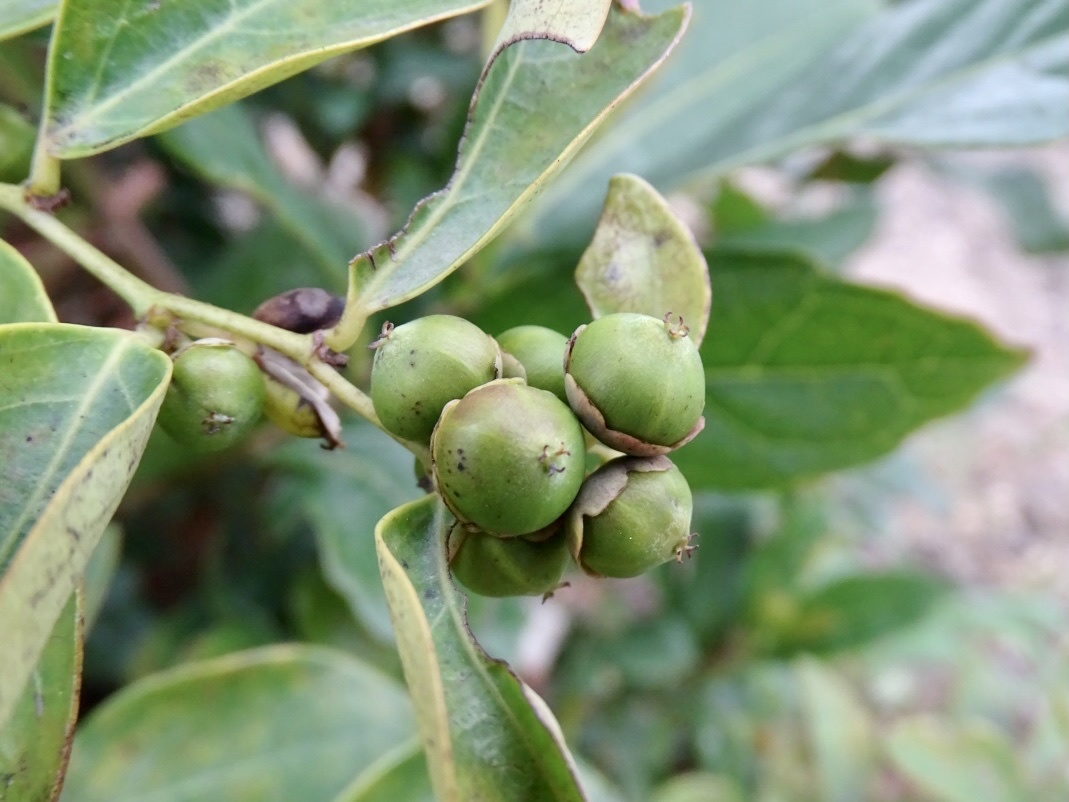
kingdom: Plantae
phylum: Tracheophyta
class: Magnoliopsida
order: Malpighiales
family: Phyllanthaceae
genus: Breynia
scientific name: Breynia fruticosa
